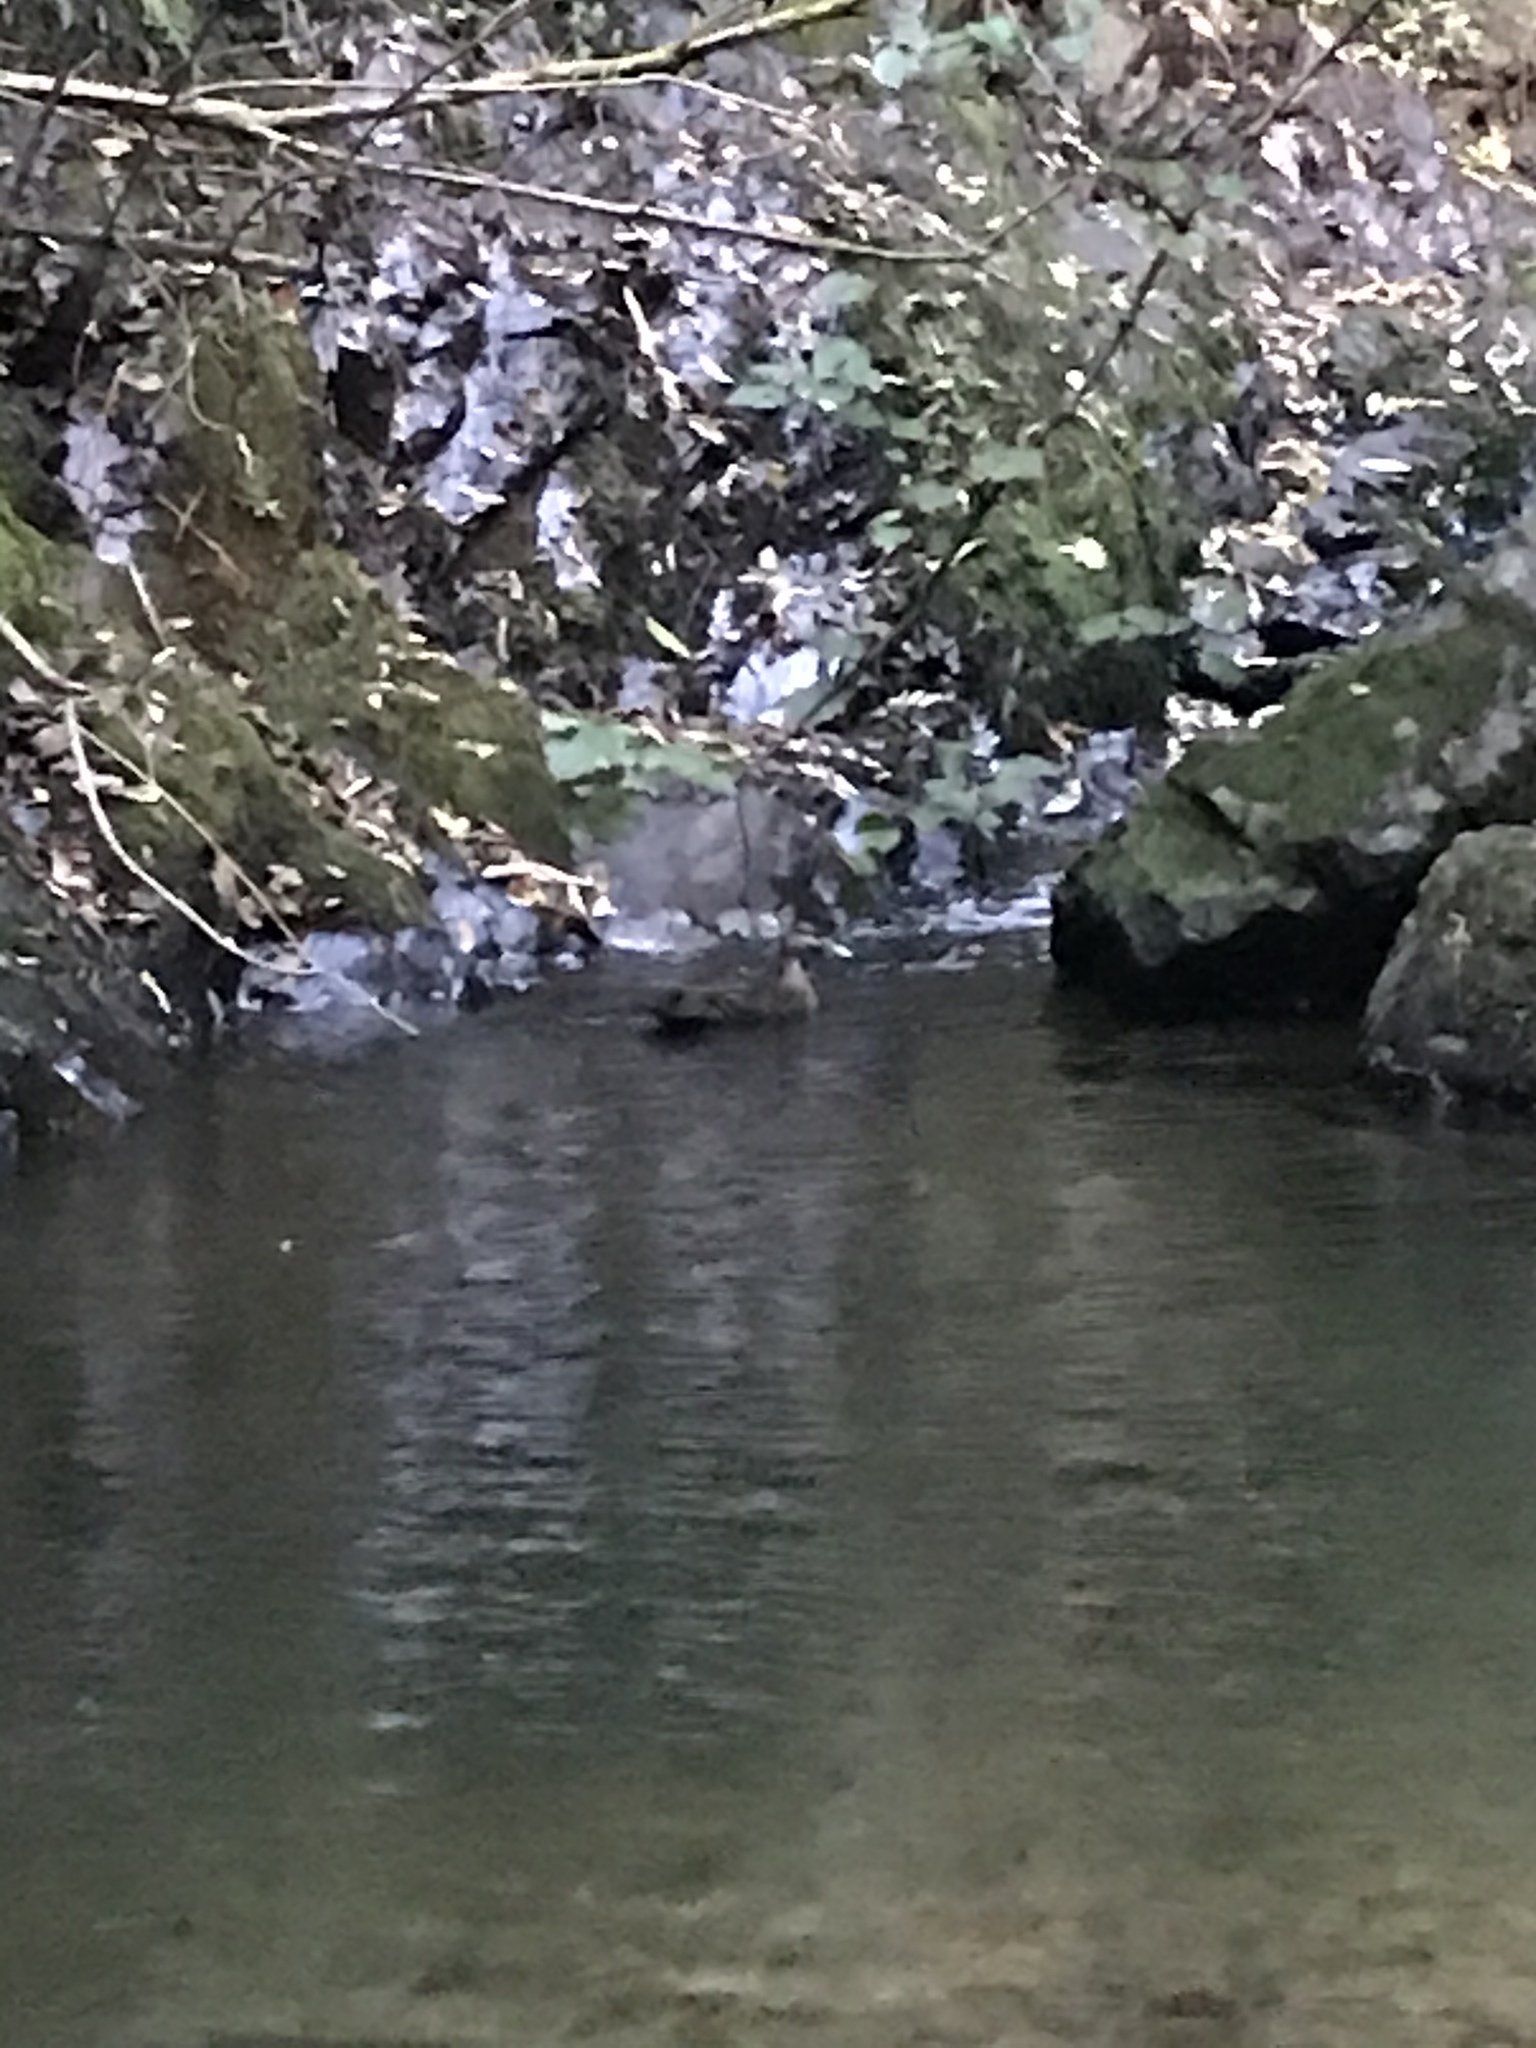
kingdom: Animalia
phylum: Chordata
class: Aves
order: Anseriformes
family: Anatidae
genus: Anas
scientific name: Anas
